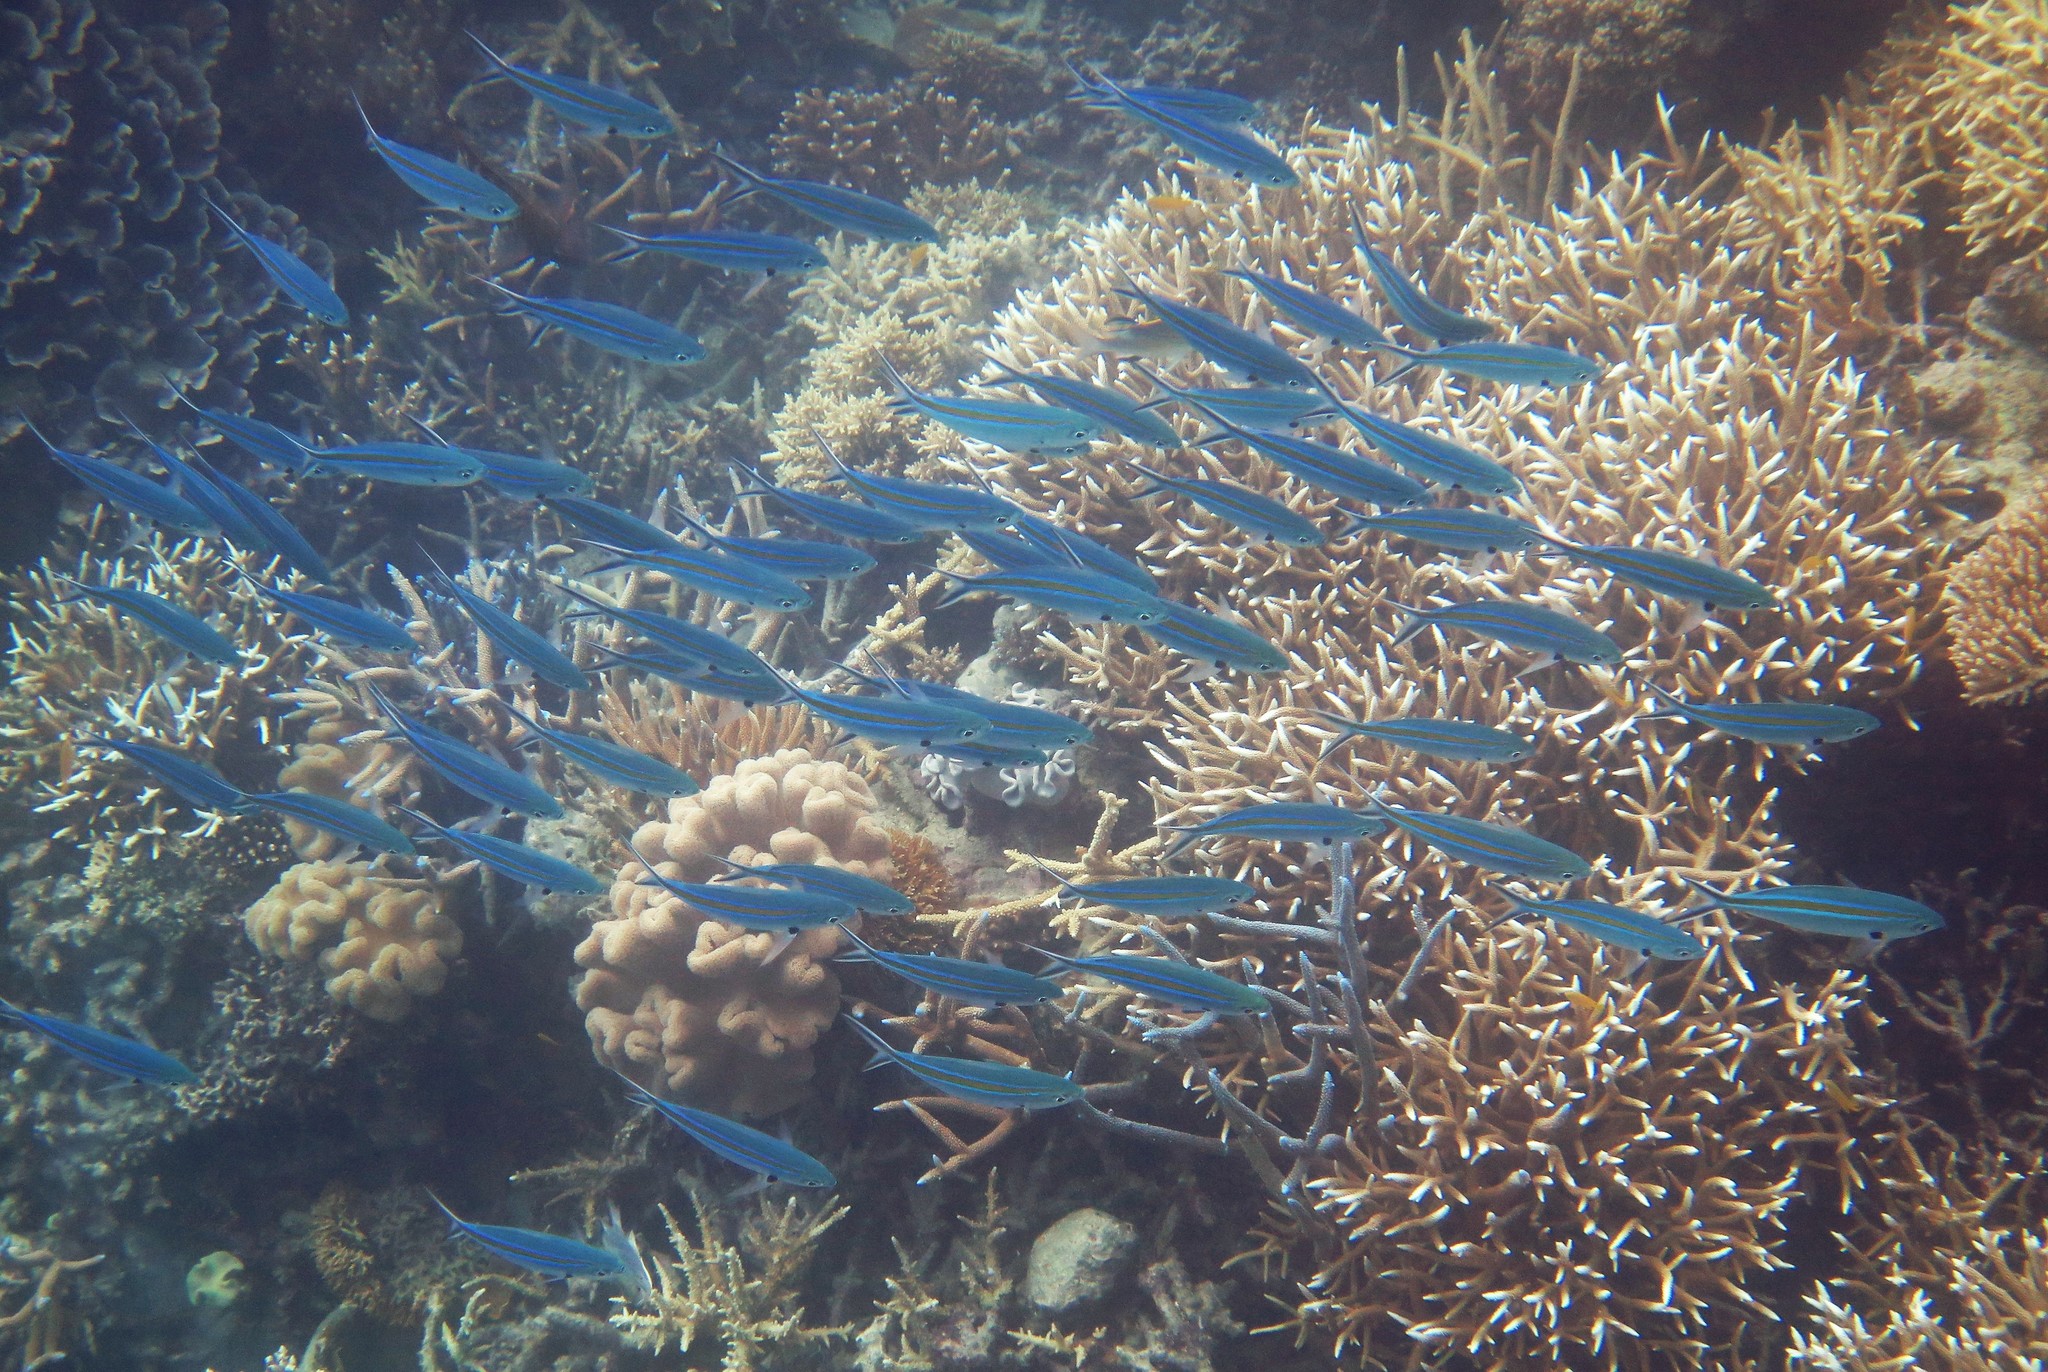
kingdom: Animalia
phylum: Chordata
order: Perciformes
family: Caesionidae
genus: Caesio
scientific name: Caesio caerulaurea
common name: Blue and gold fusilier
